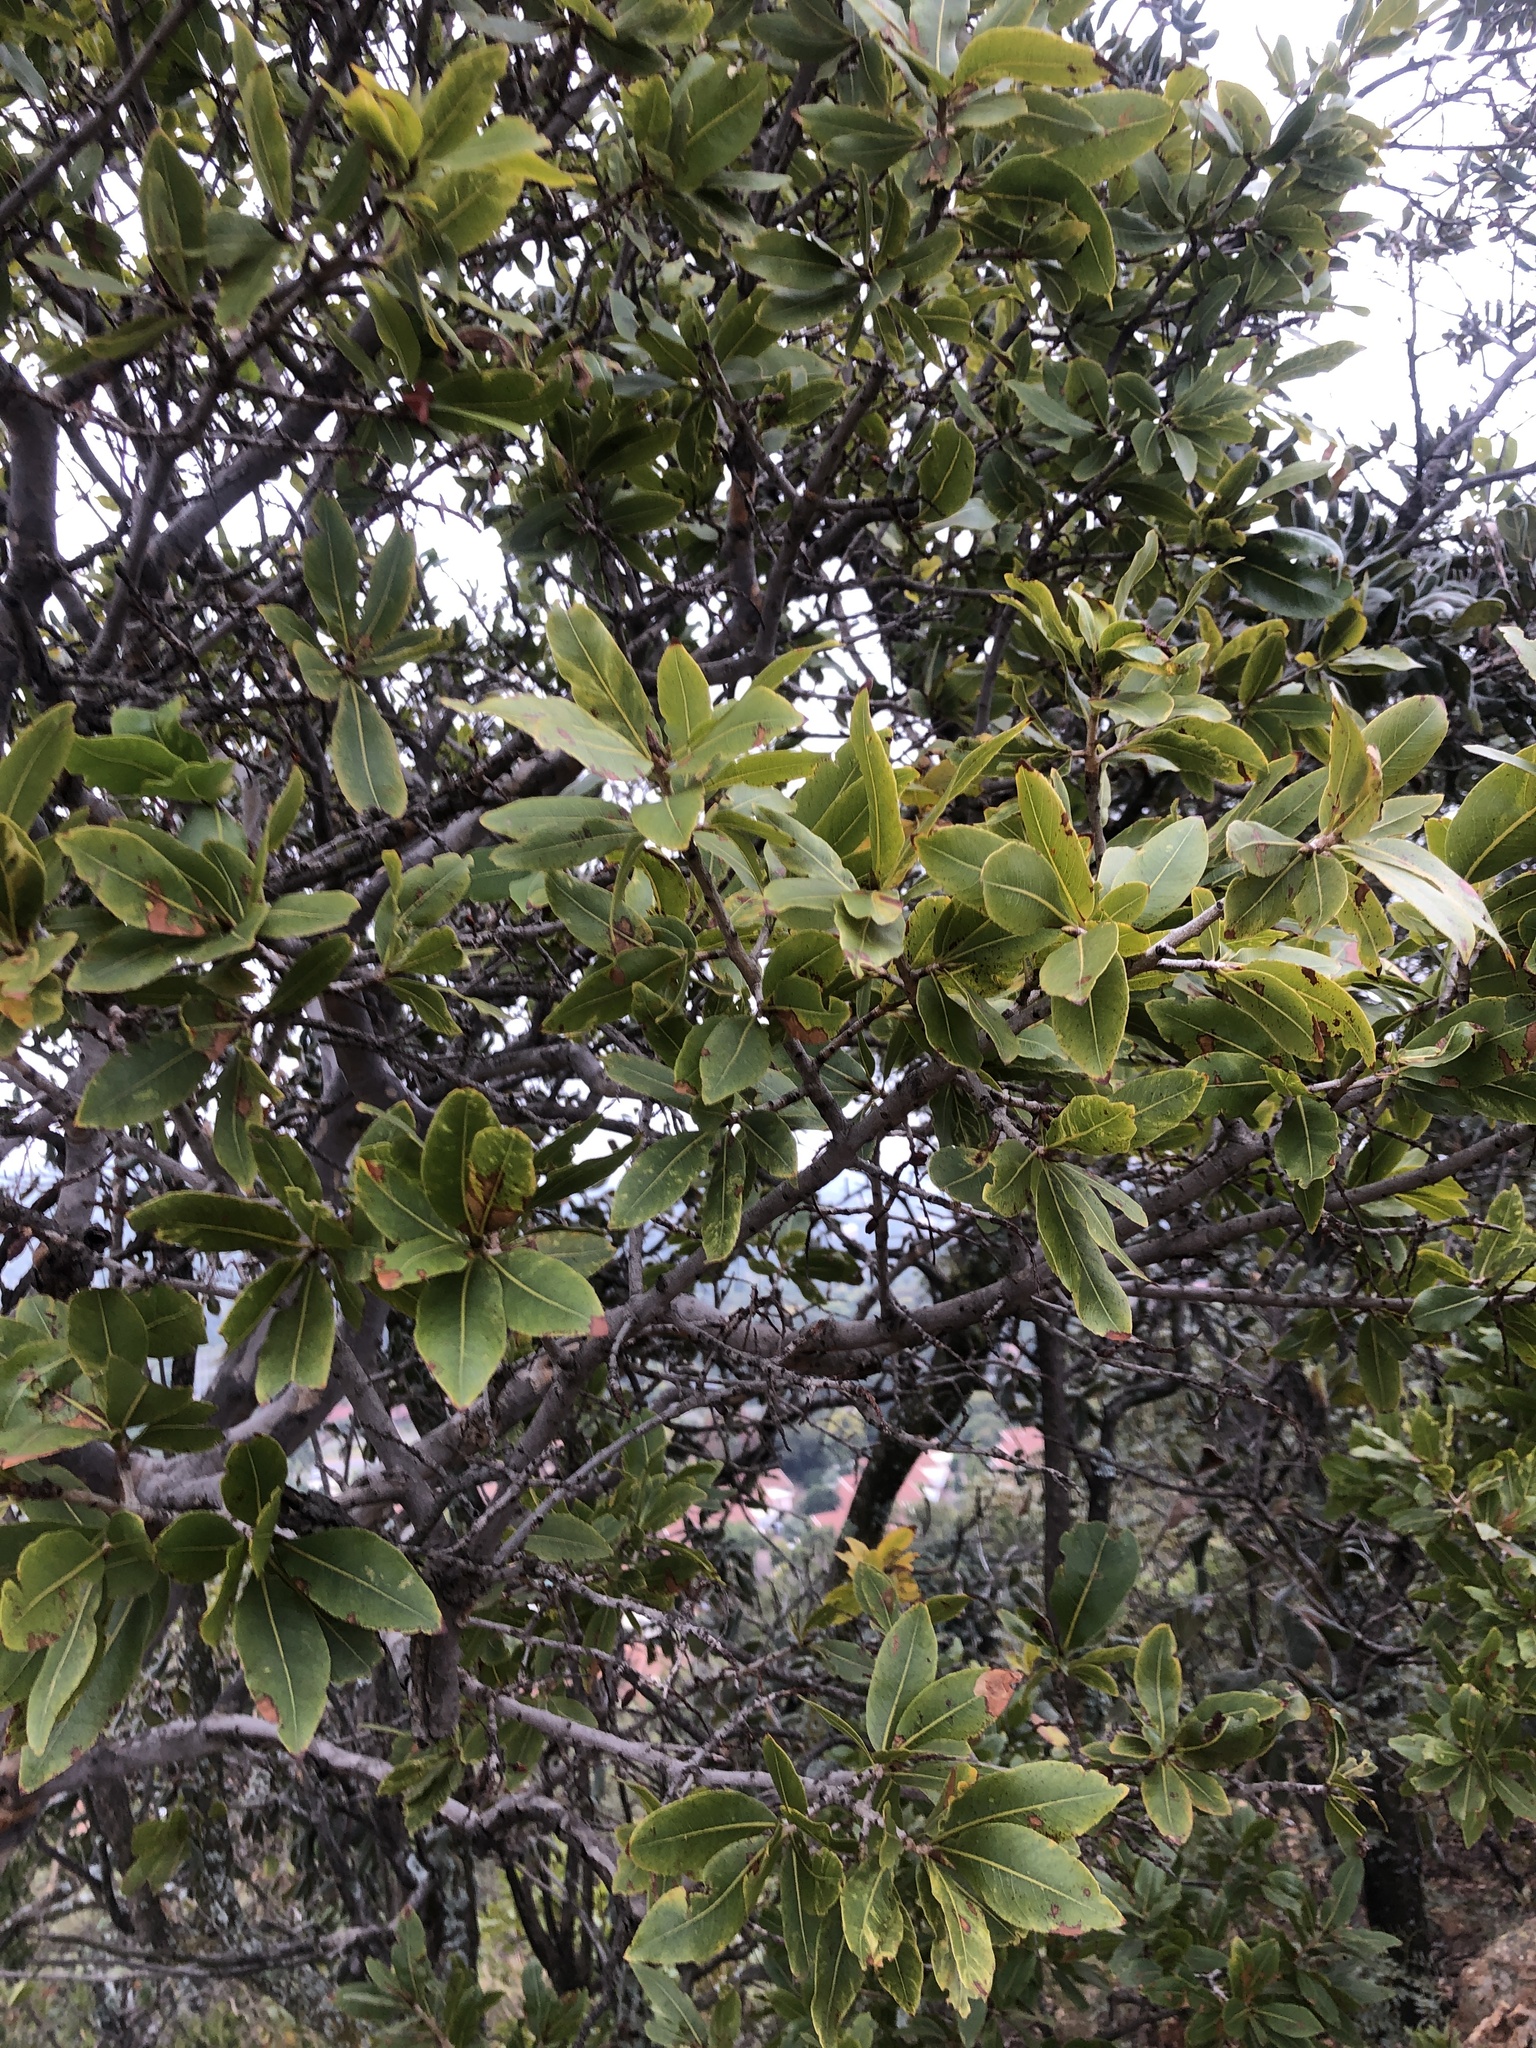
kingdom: Plantae
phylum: Tracheophyta
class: Magnoliopsida
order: Malpighiales
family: Ochnaceae
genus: Ochna
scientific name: Ochna pulchra
